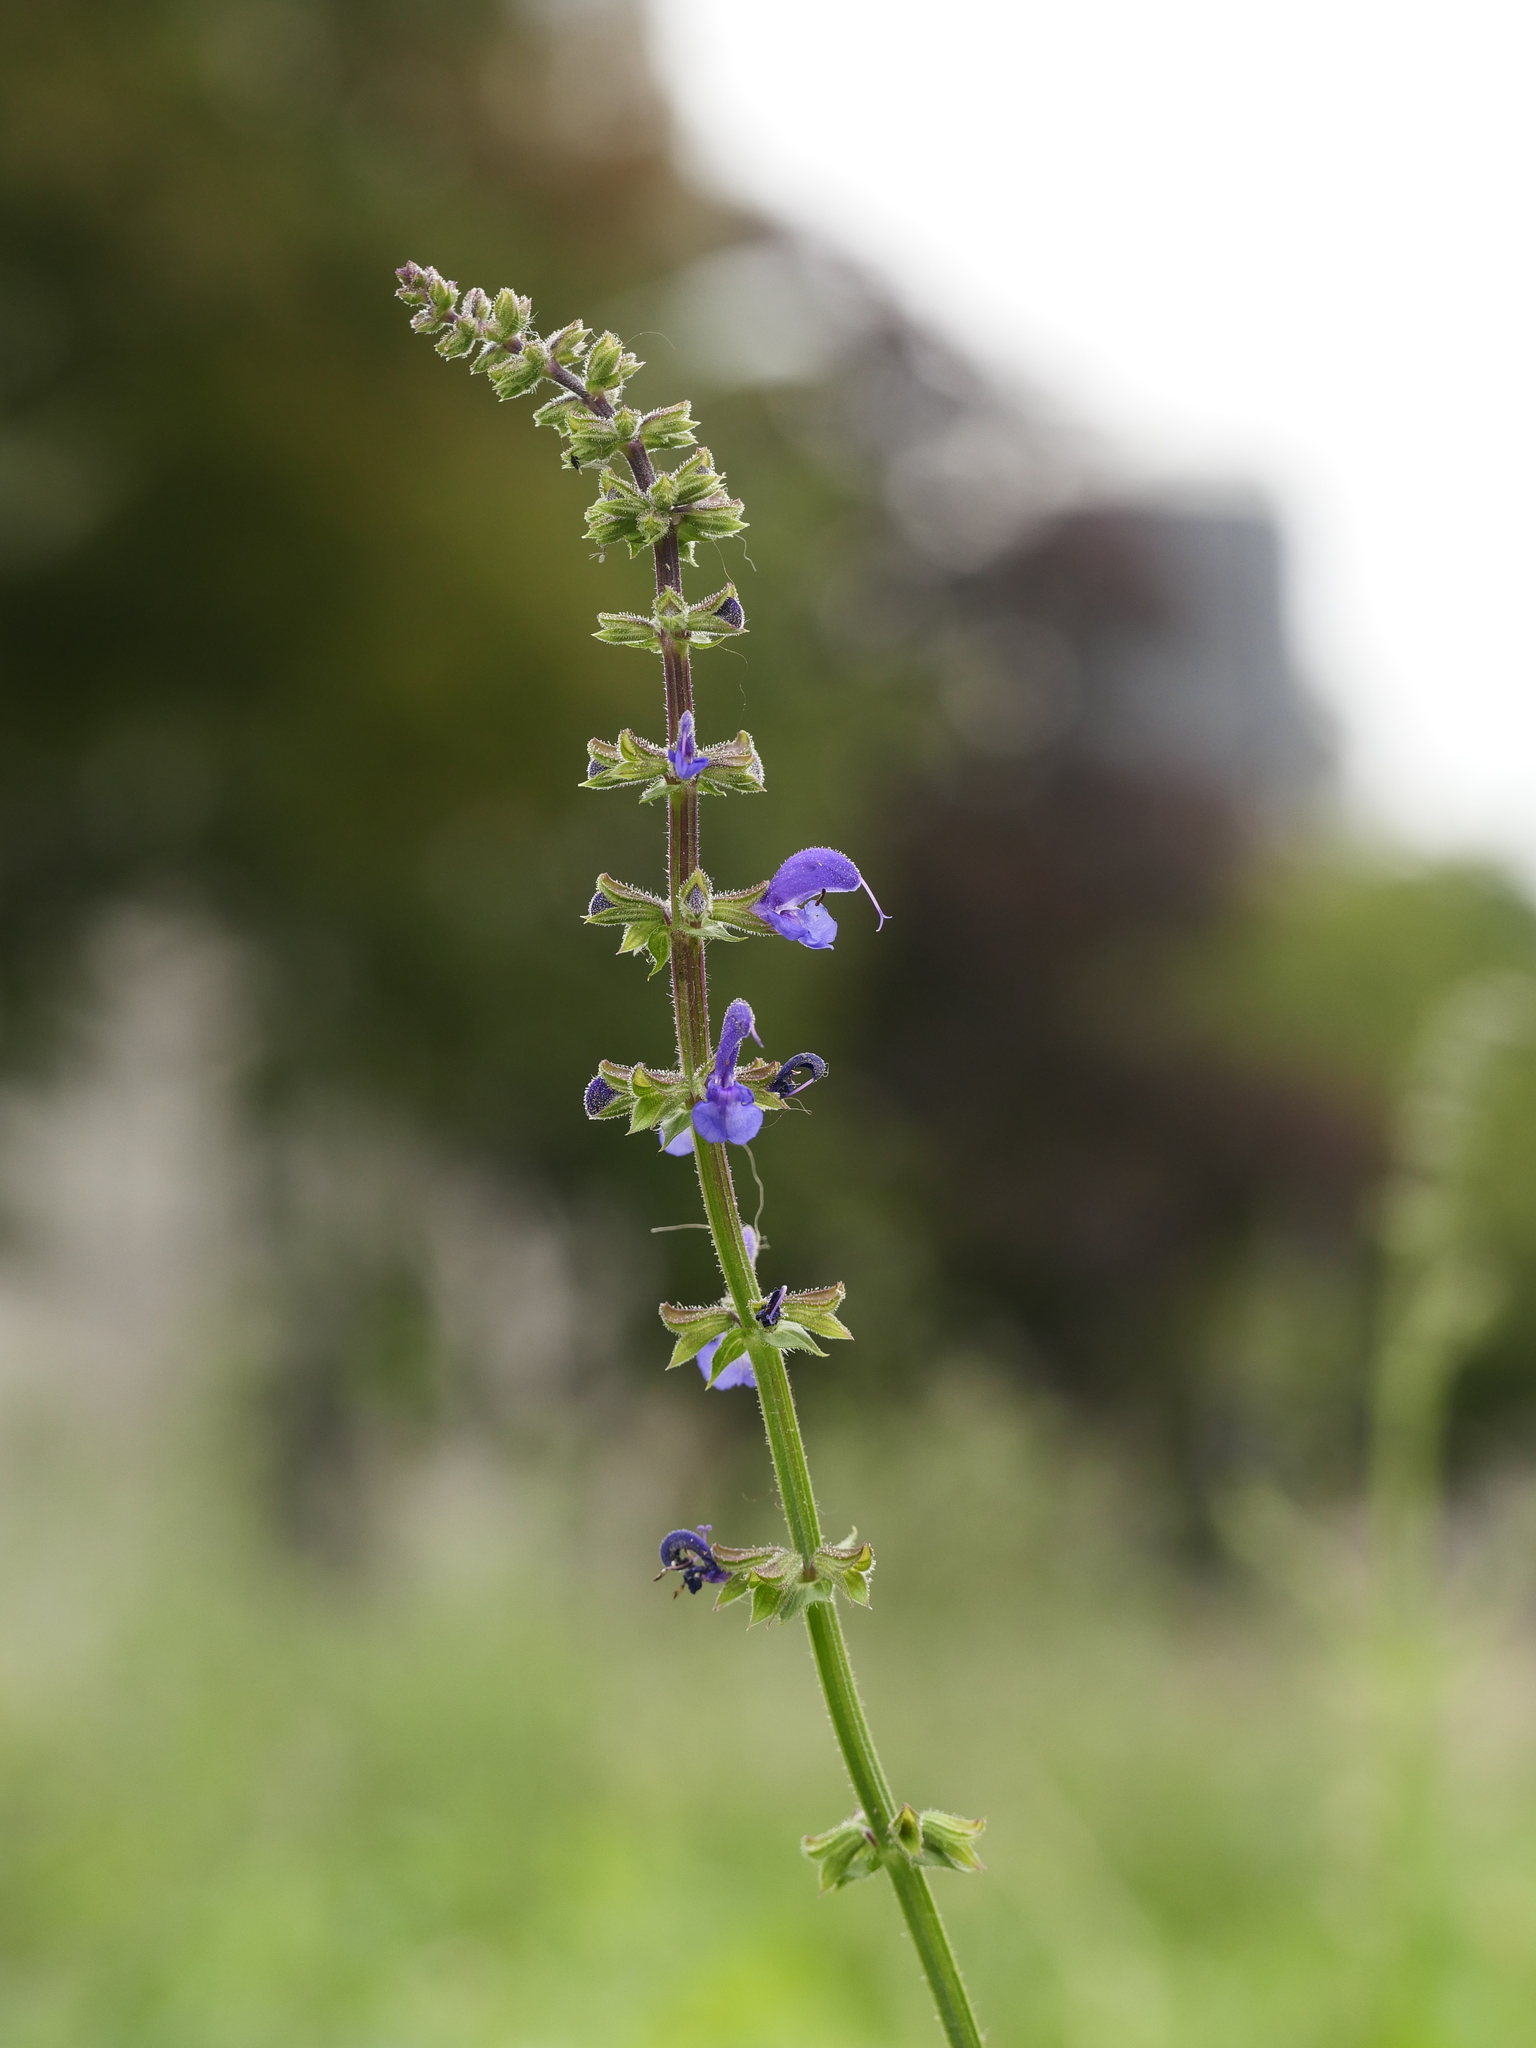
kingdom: Plantae
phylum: Tracheophyta
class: Magnoliopsida
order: Lamiales
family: Lamiaceae
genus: Salvia
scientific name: Salvia pratensis
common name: Meadow sage
